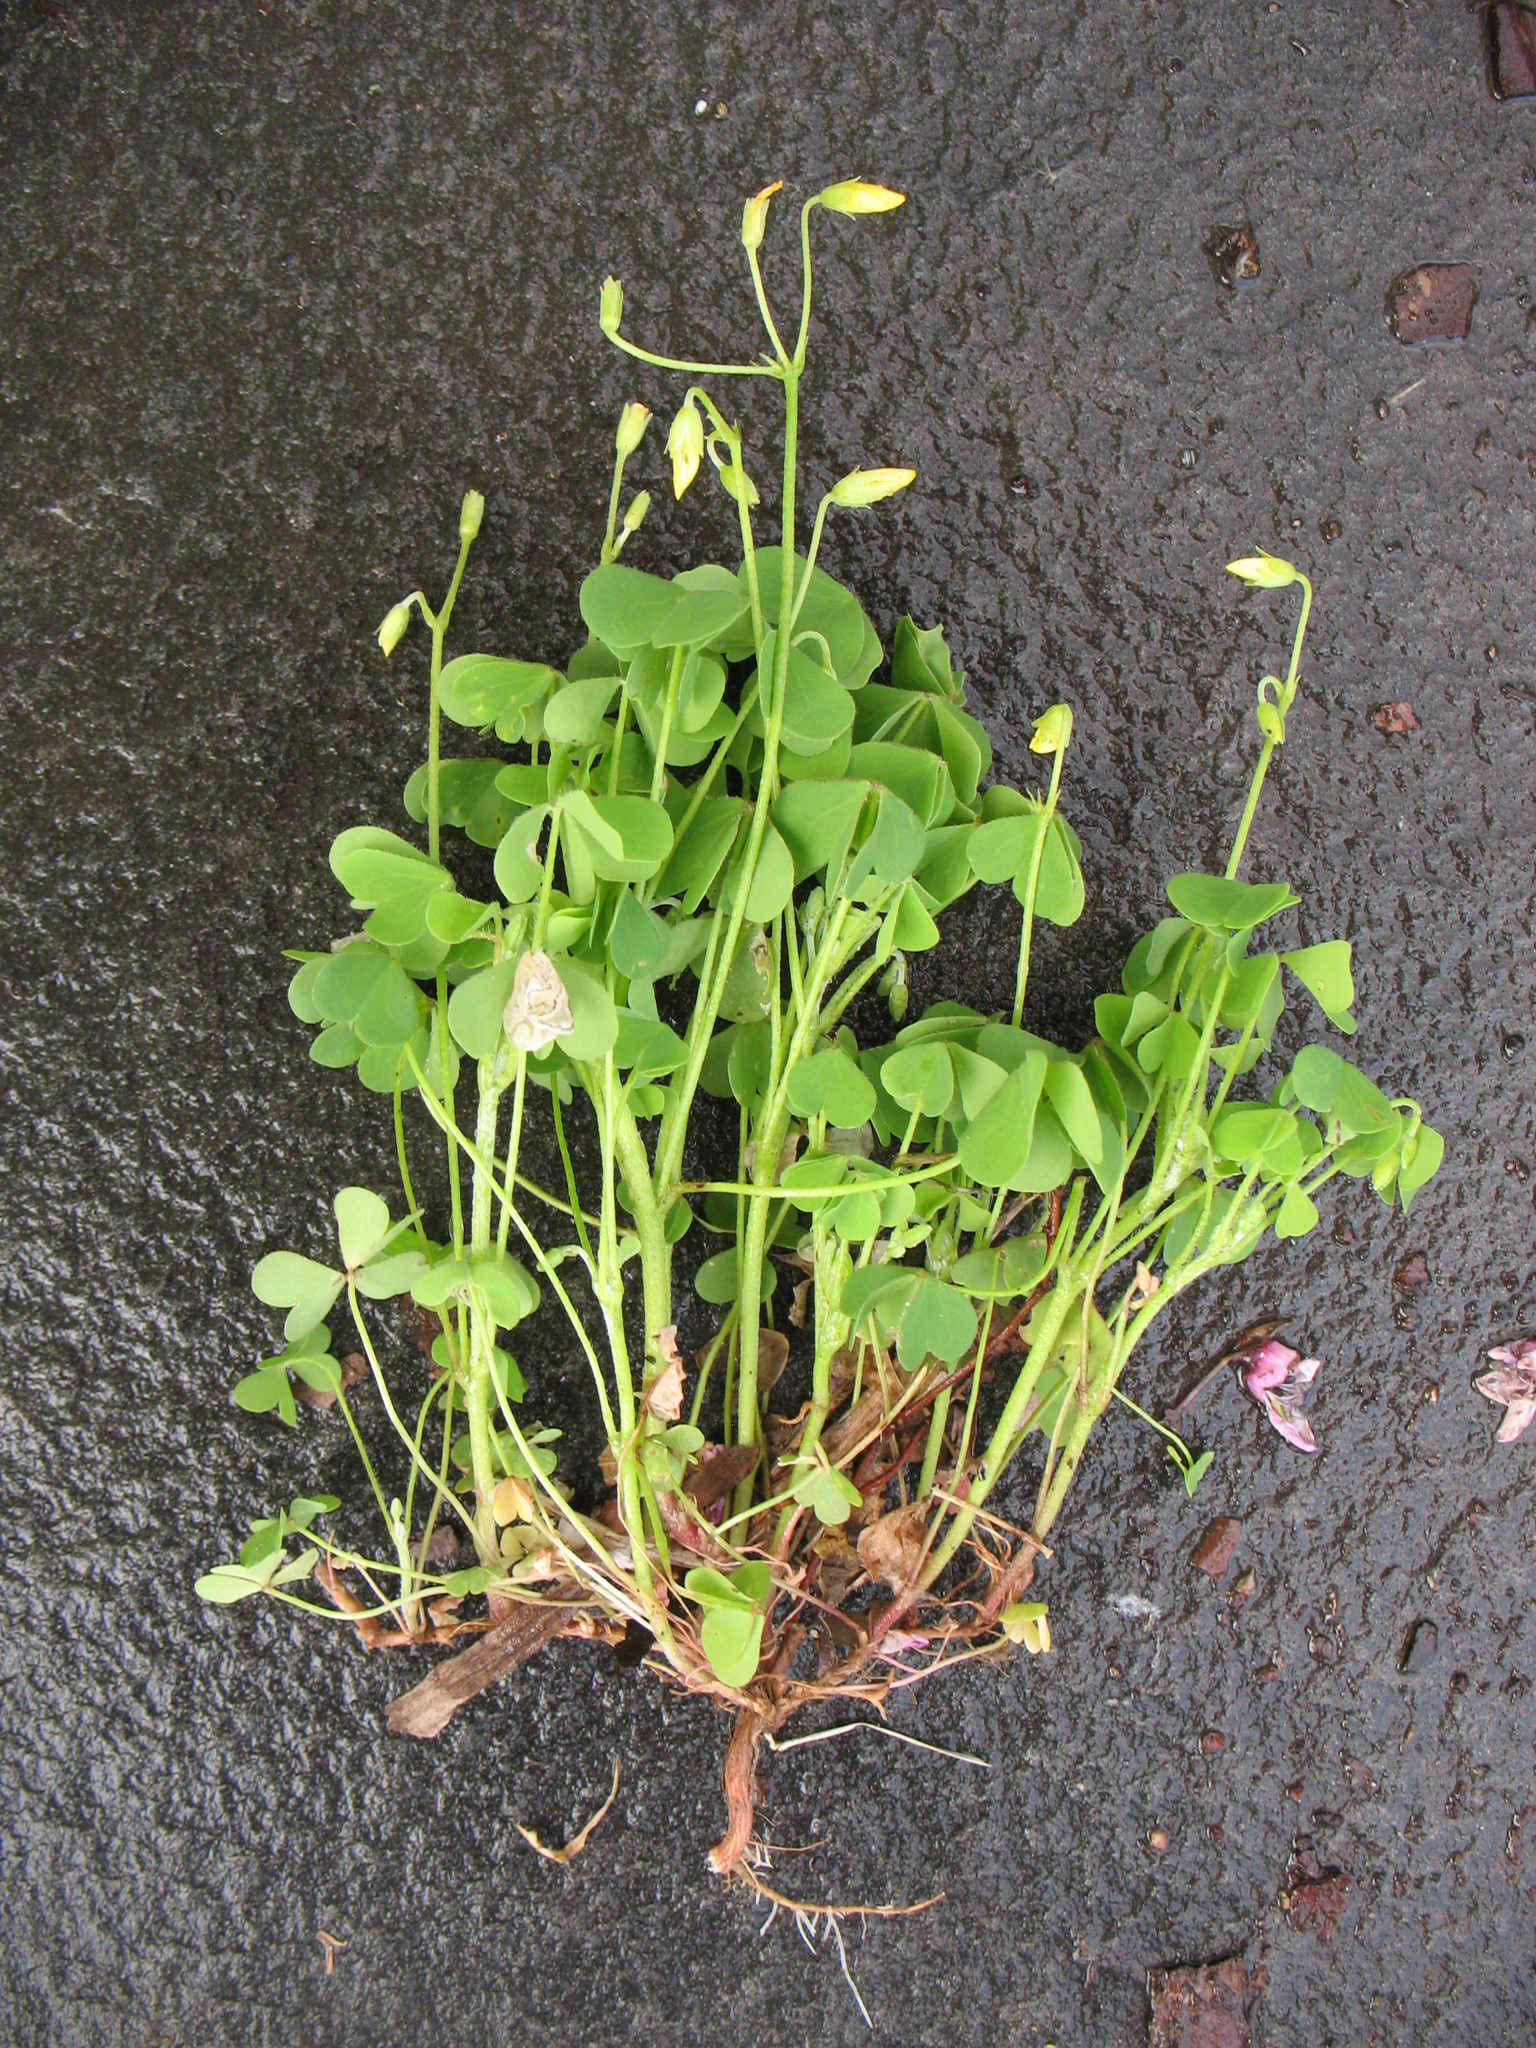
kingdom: Plantae
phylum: Tracheophyta
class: Magnoliopsida
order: Oxalidales
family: Oxalidaceae
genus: Oxalis
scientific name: Oxalis stricta
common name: Upright yellow-sorrel
